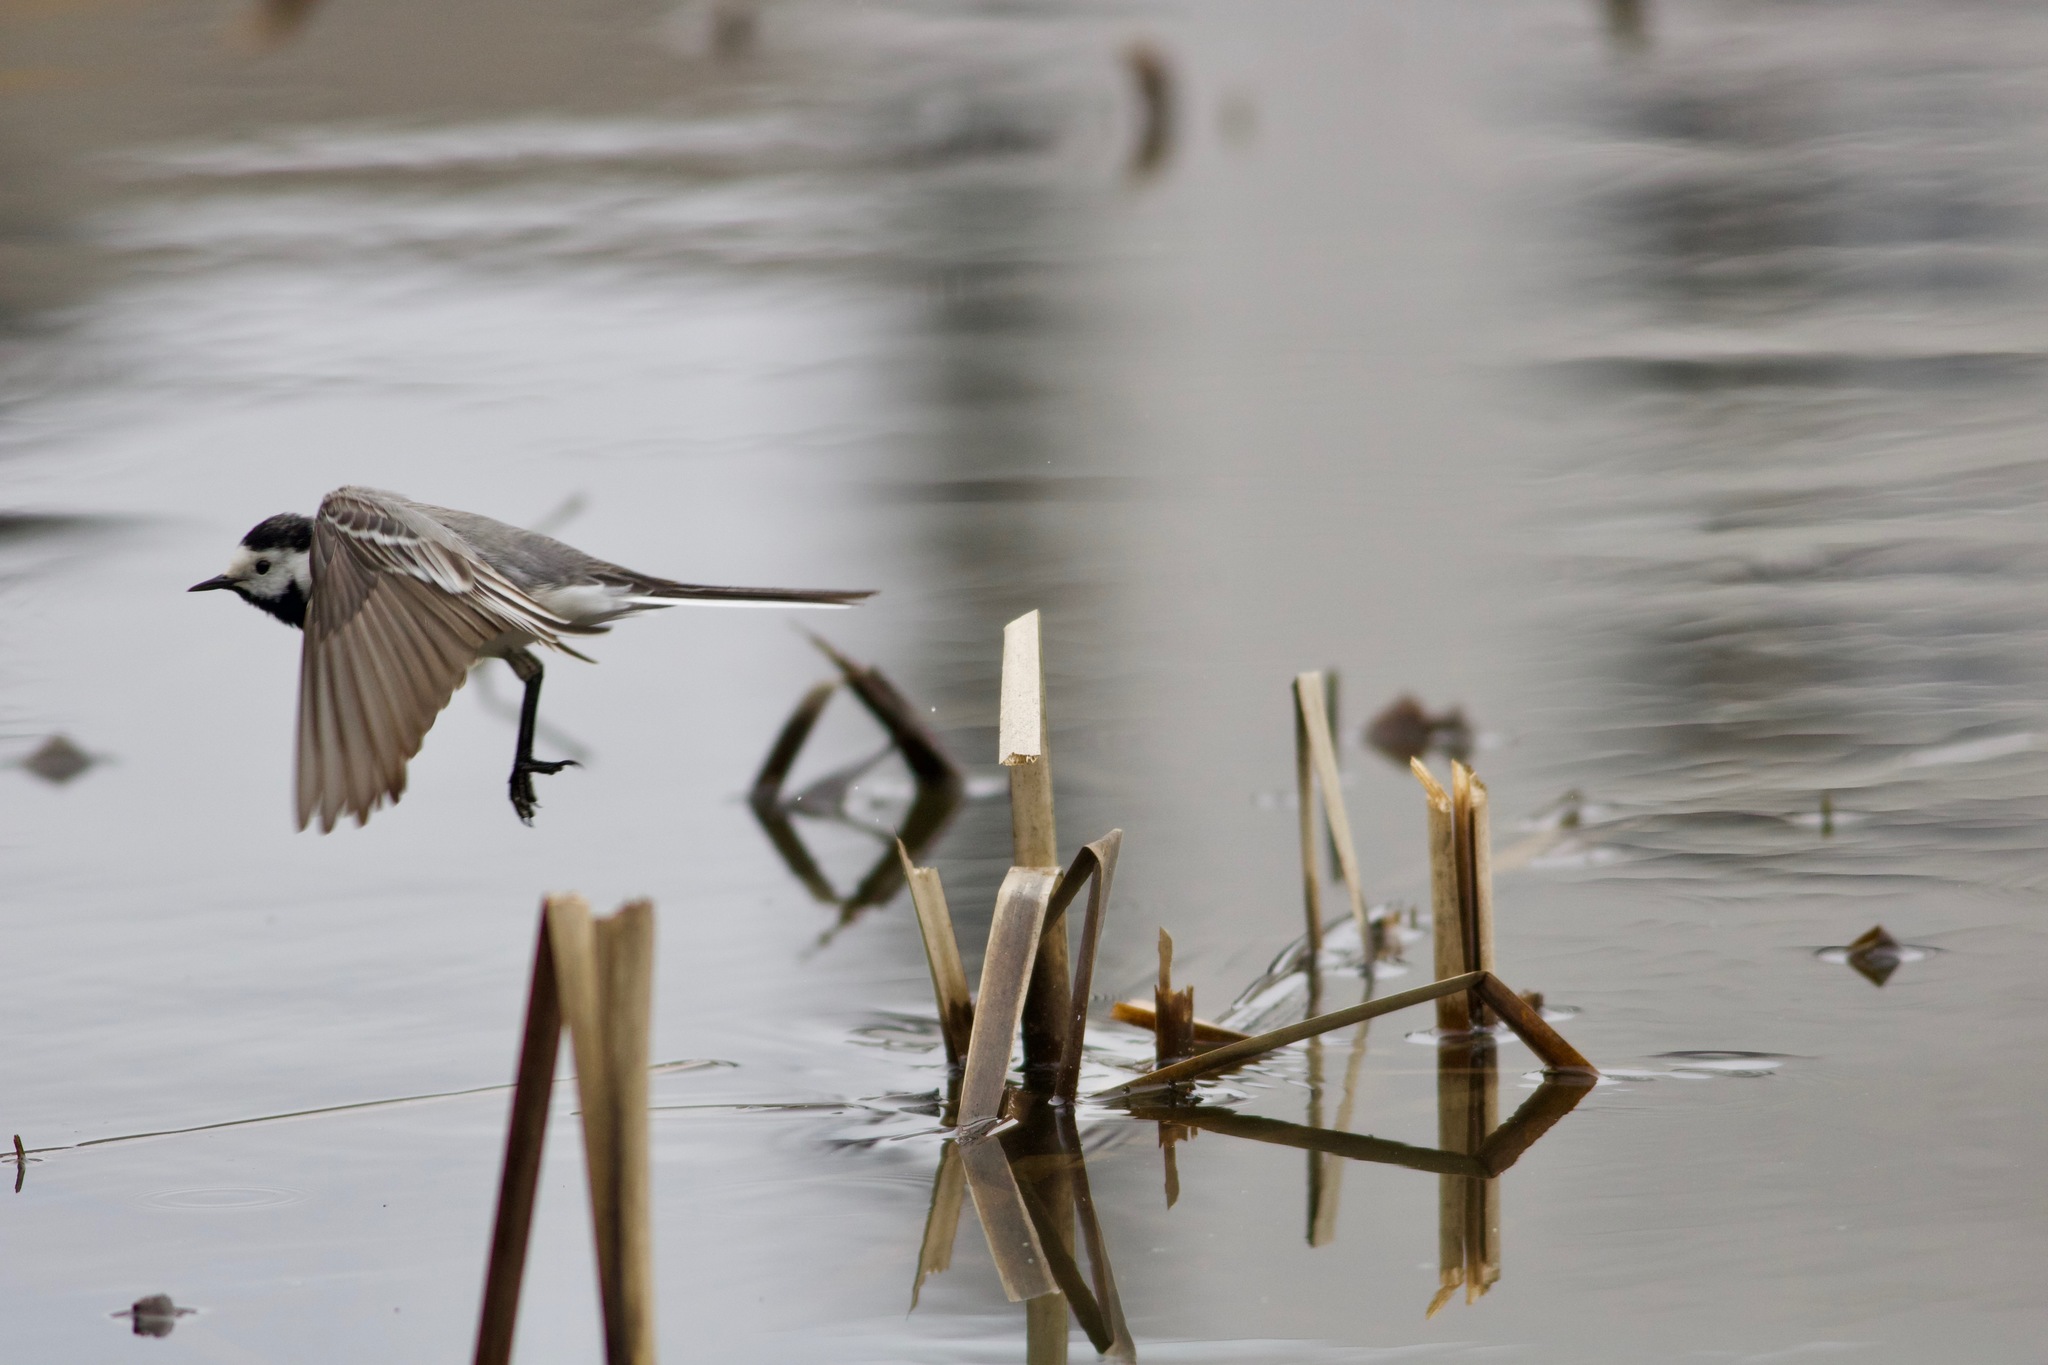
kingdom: Animalia
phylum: Chordata
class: Aves
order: Passeriformes
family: Motacillidae
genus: Motacilla
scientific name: Motacilla alba
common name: White wagtail
